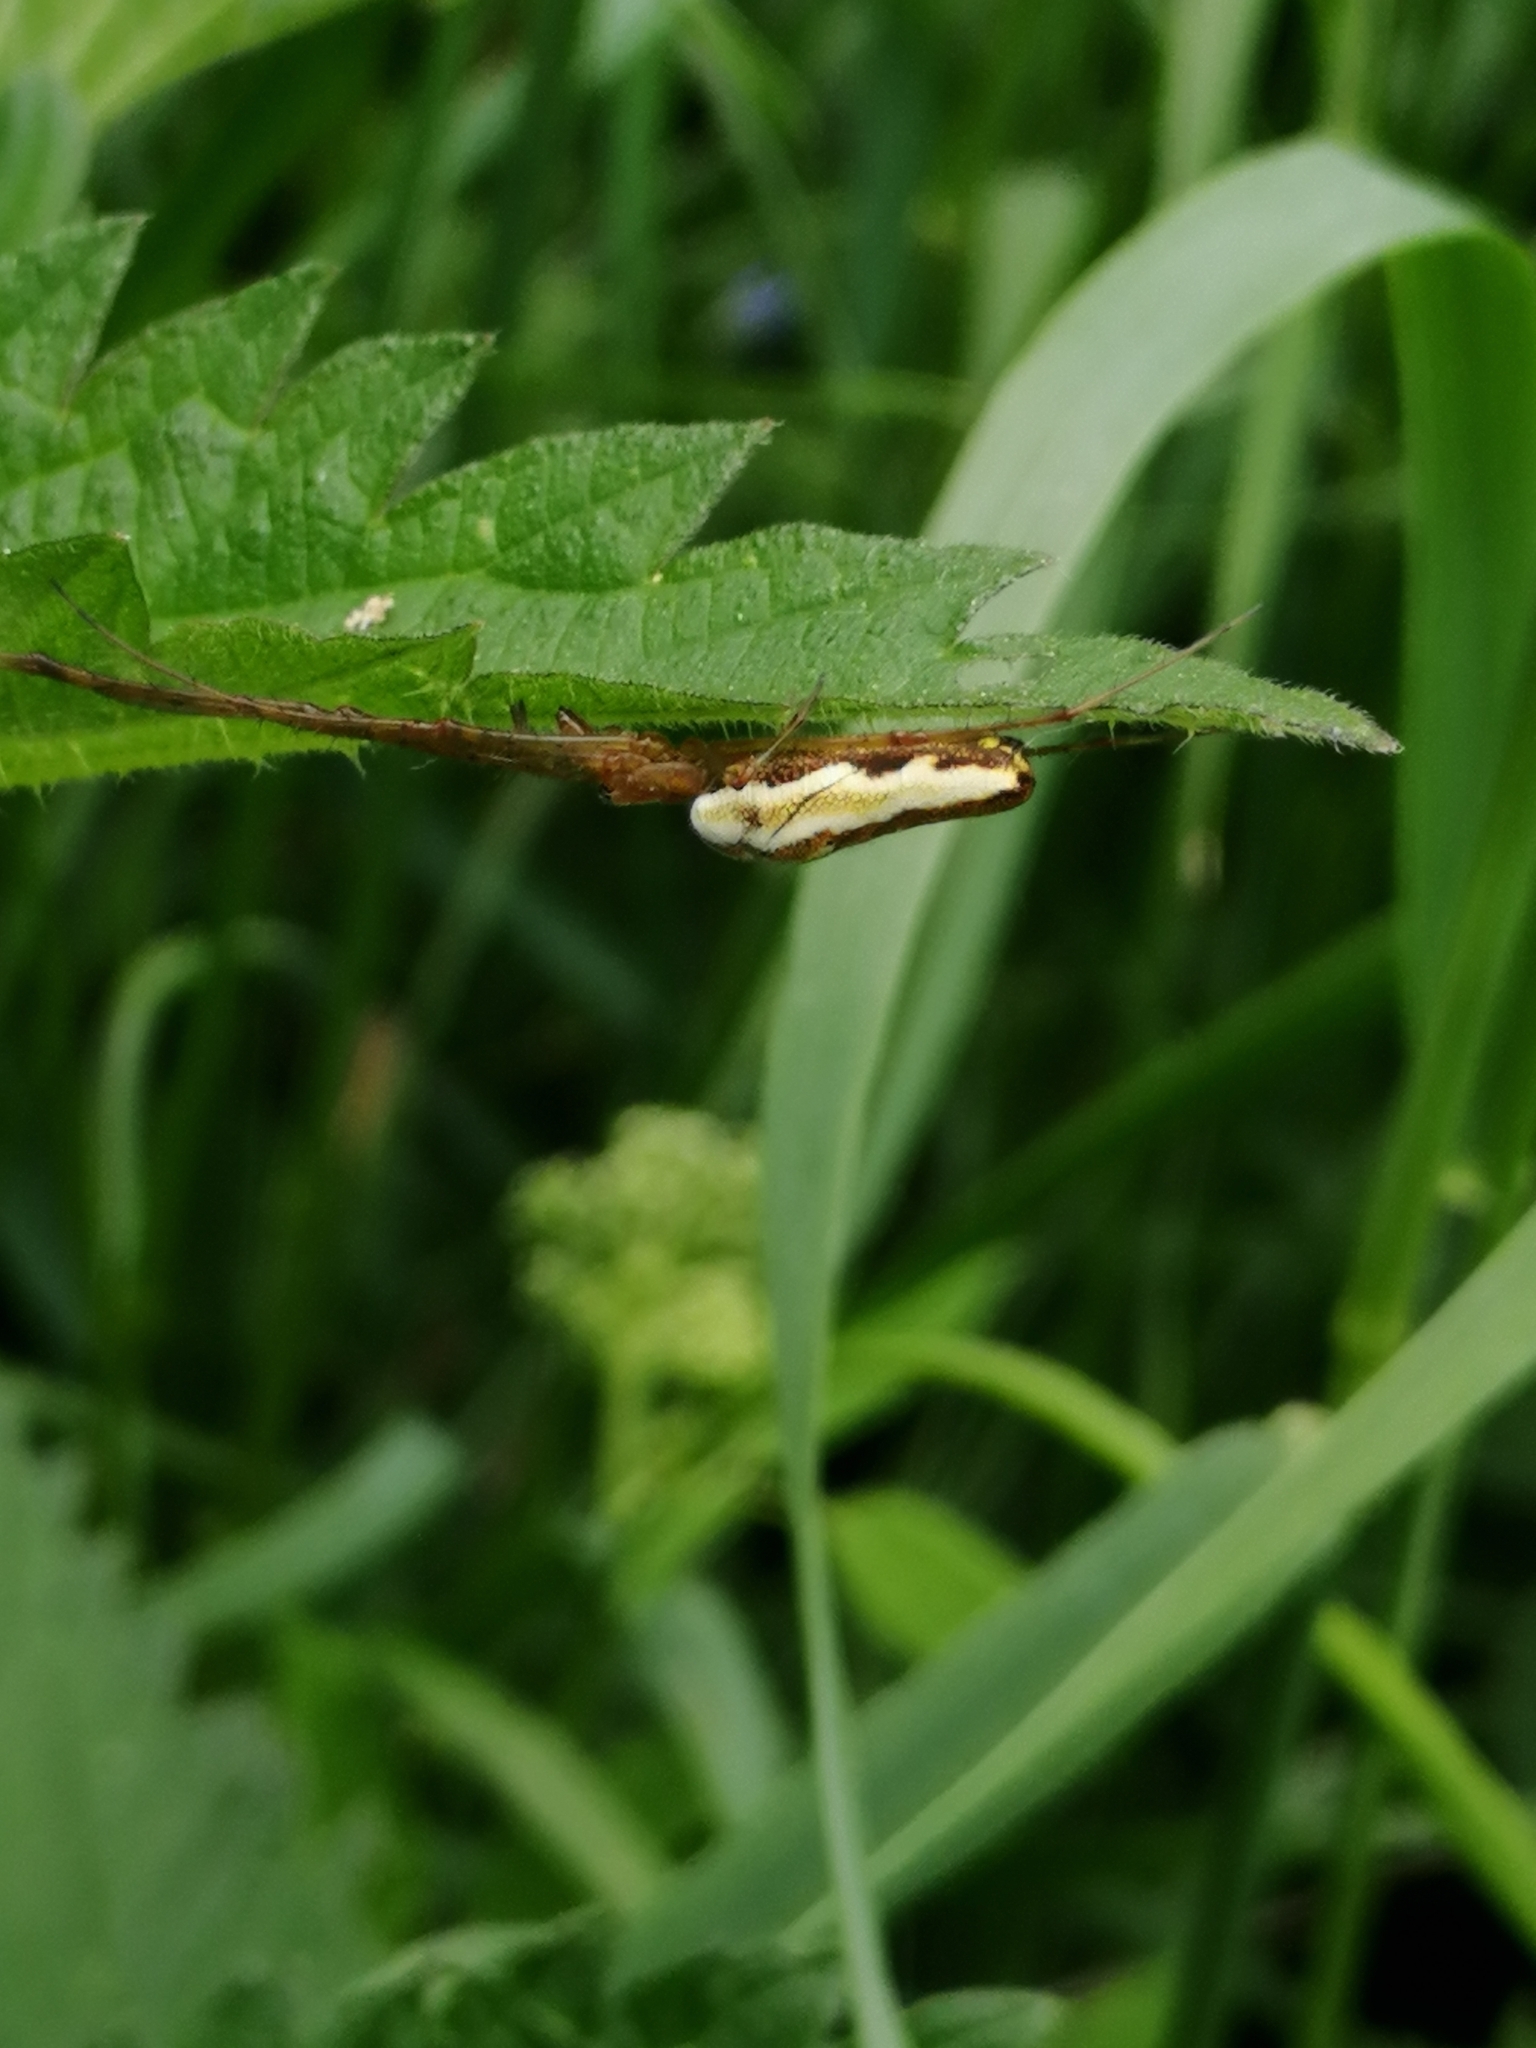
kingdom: Animalia
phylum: Arthropoda
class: Arachnida
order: Araneae
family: Tetragnathidae
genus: Tetragnatha
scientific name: Tetragnatha
